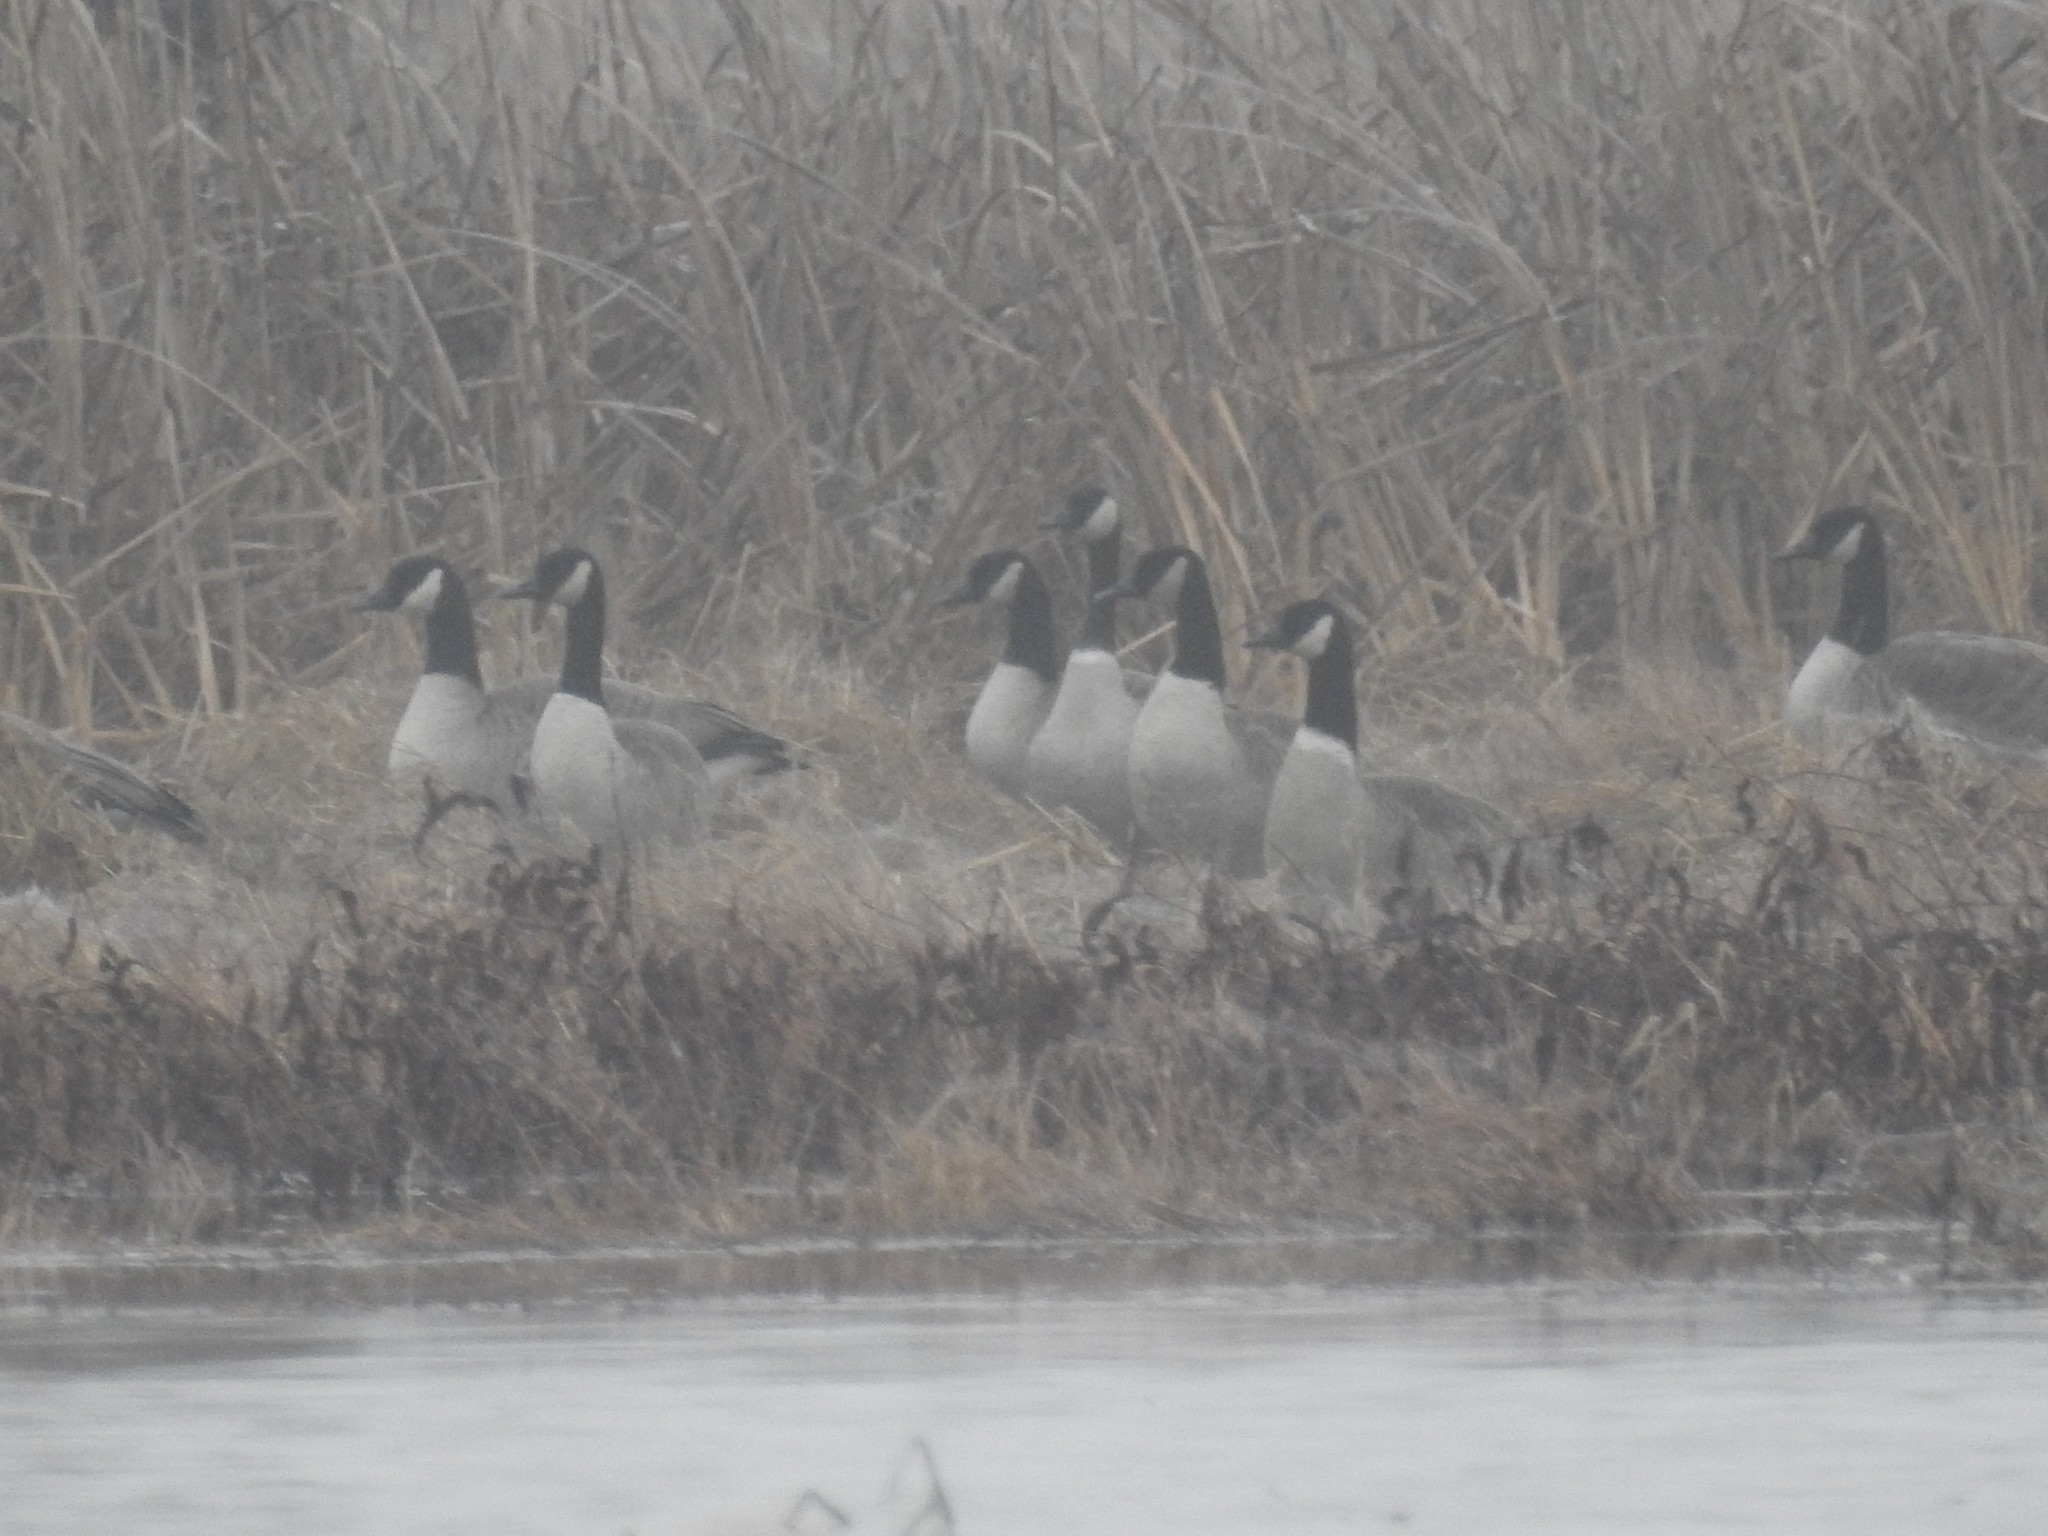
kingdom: Animalia
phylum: Chordata
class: Aves
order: Anseriformes
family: Anatidae
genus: Branta
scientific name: Branta canadensis
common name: Canada goose
